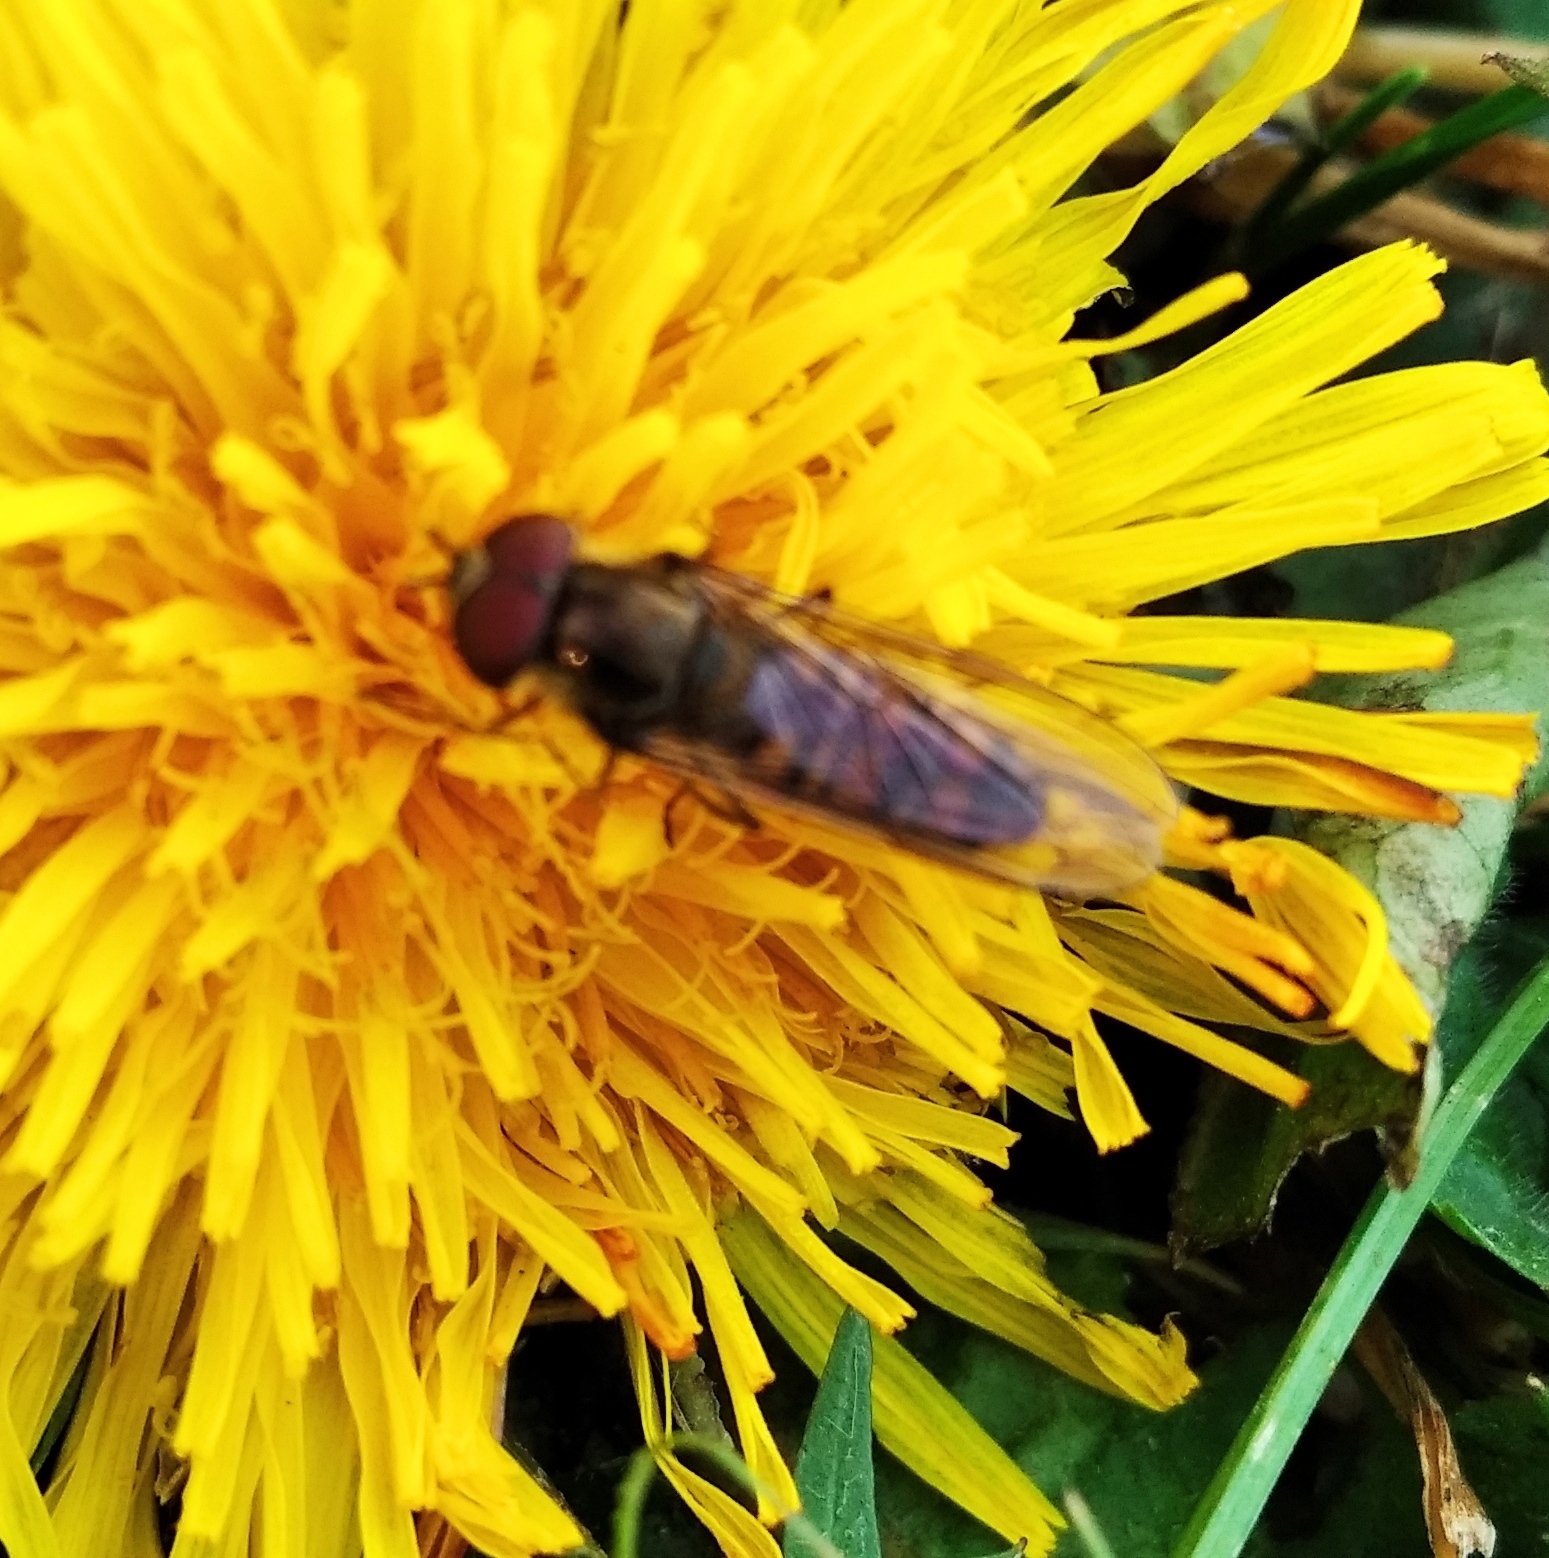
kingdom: Animalia
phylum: Arthropoda
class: Insecta
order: Diptera
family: Syrphidae
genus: Episyrphus
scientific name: Episyrphus balteatus
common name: Marmalade hoverfly
